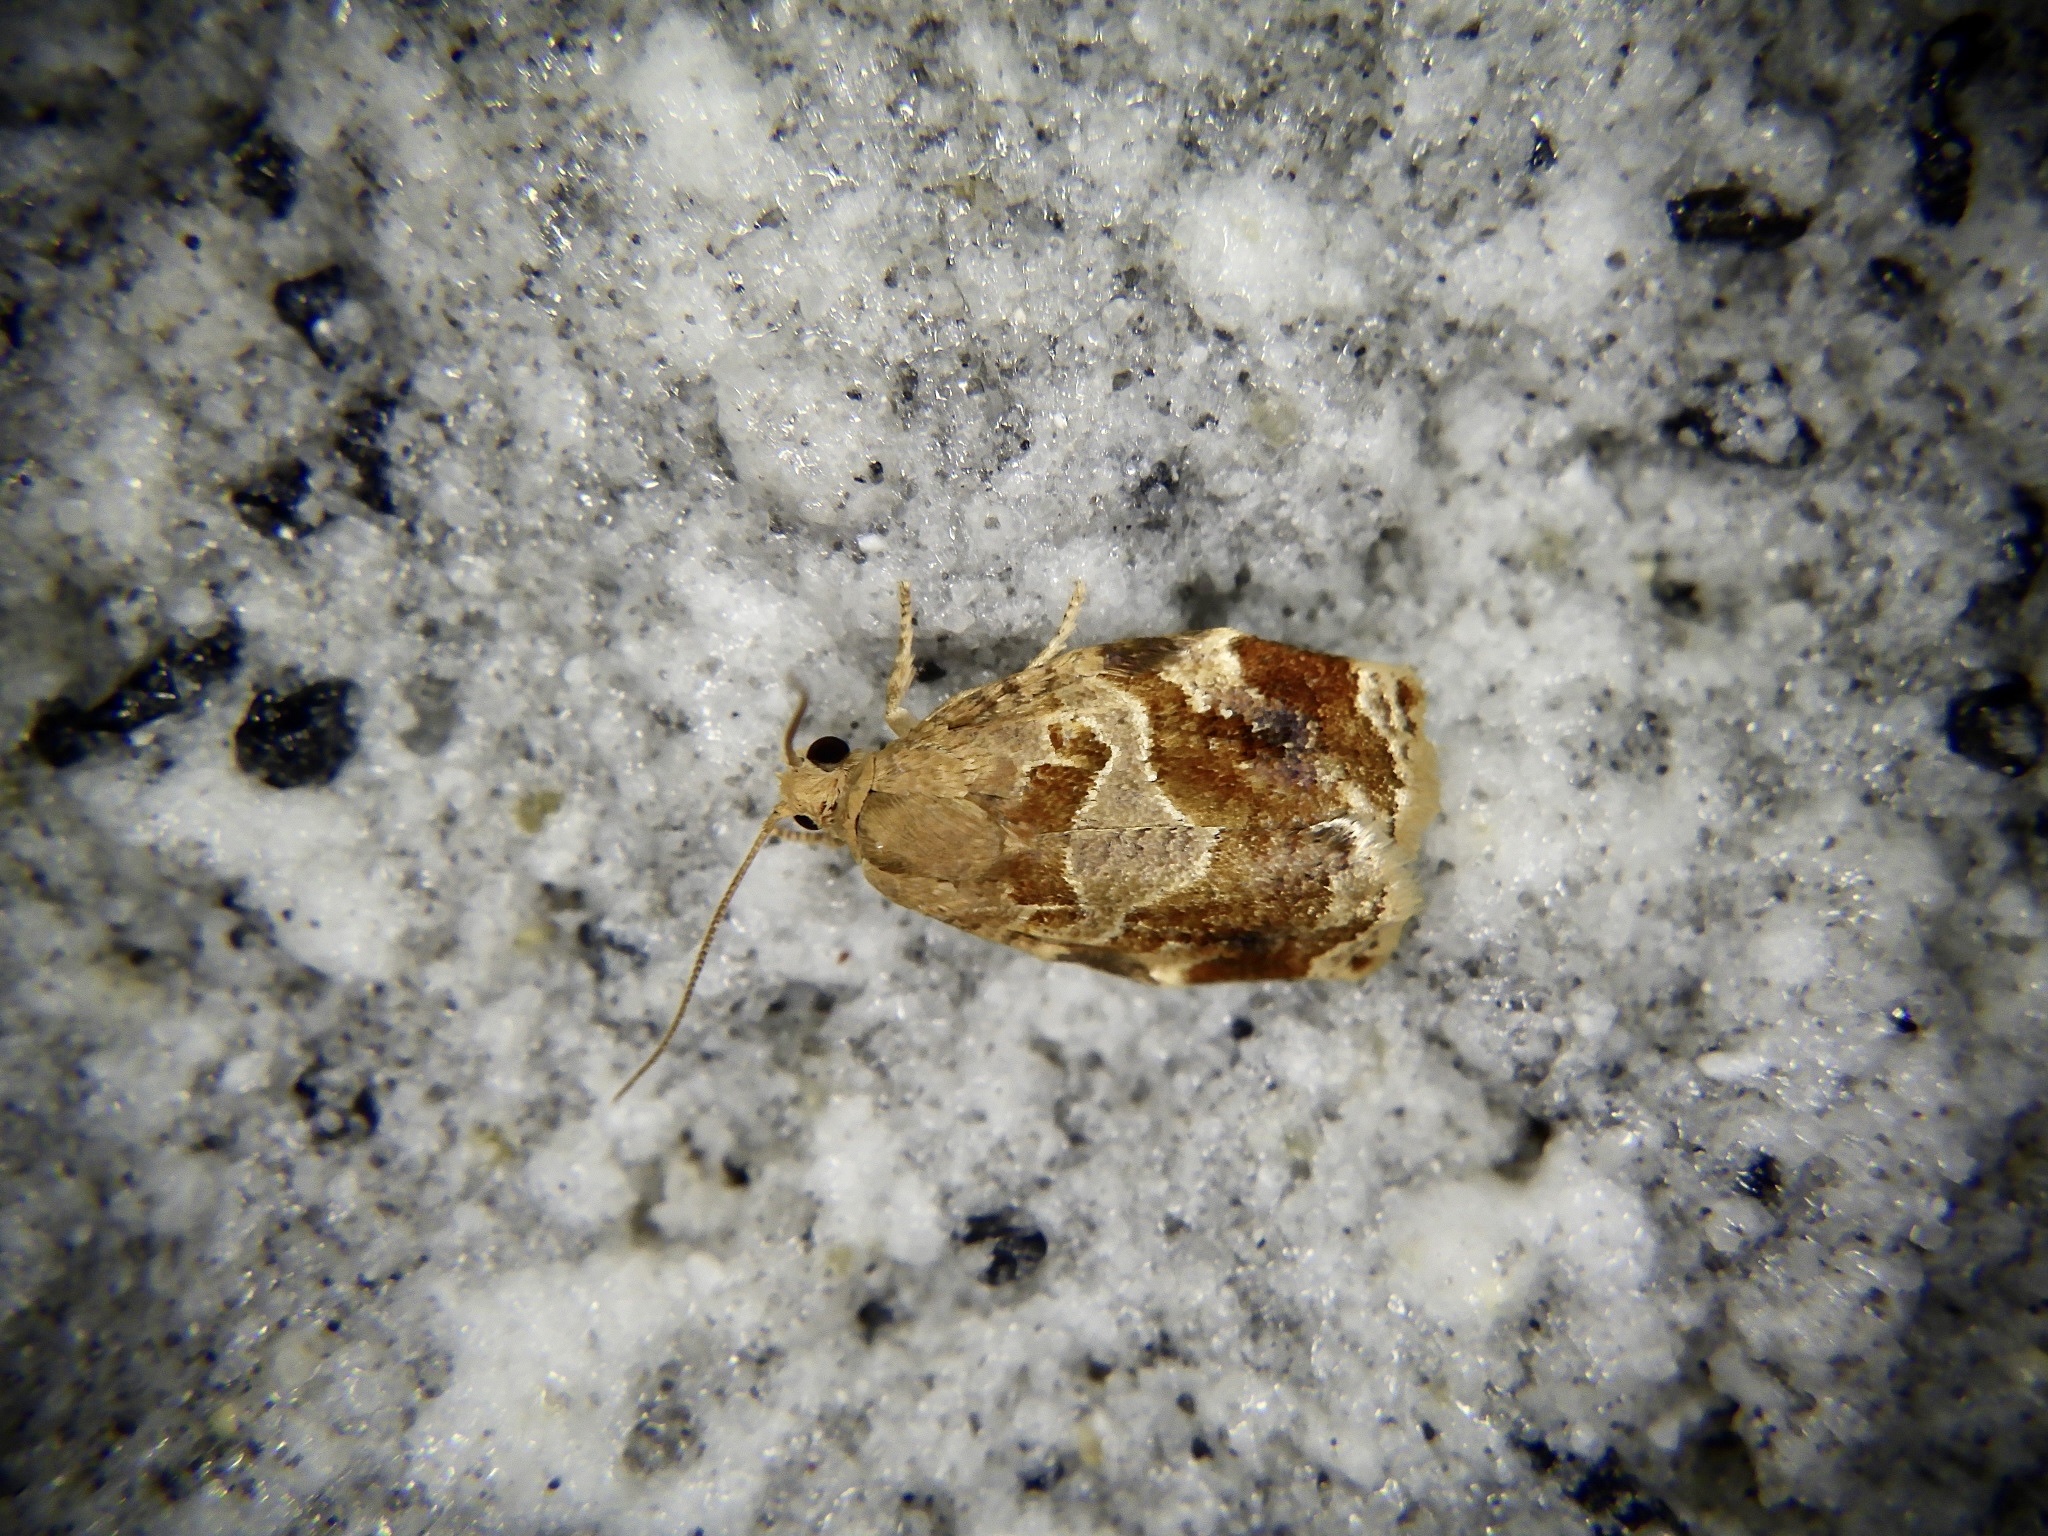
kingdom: Animalia
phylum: Arthropoda
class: Insecta
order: Lepidoptera
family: Tortricidae
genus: Archips
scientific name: Archips xylosteana
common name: Variegated golden tortrix
